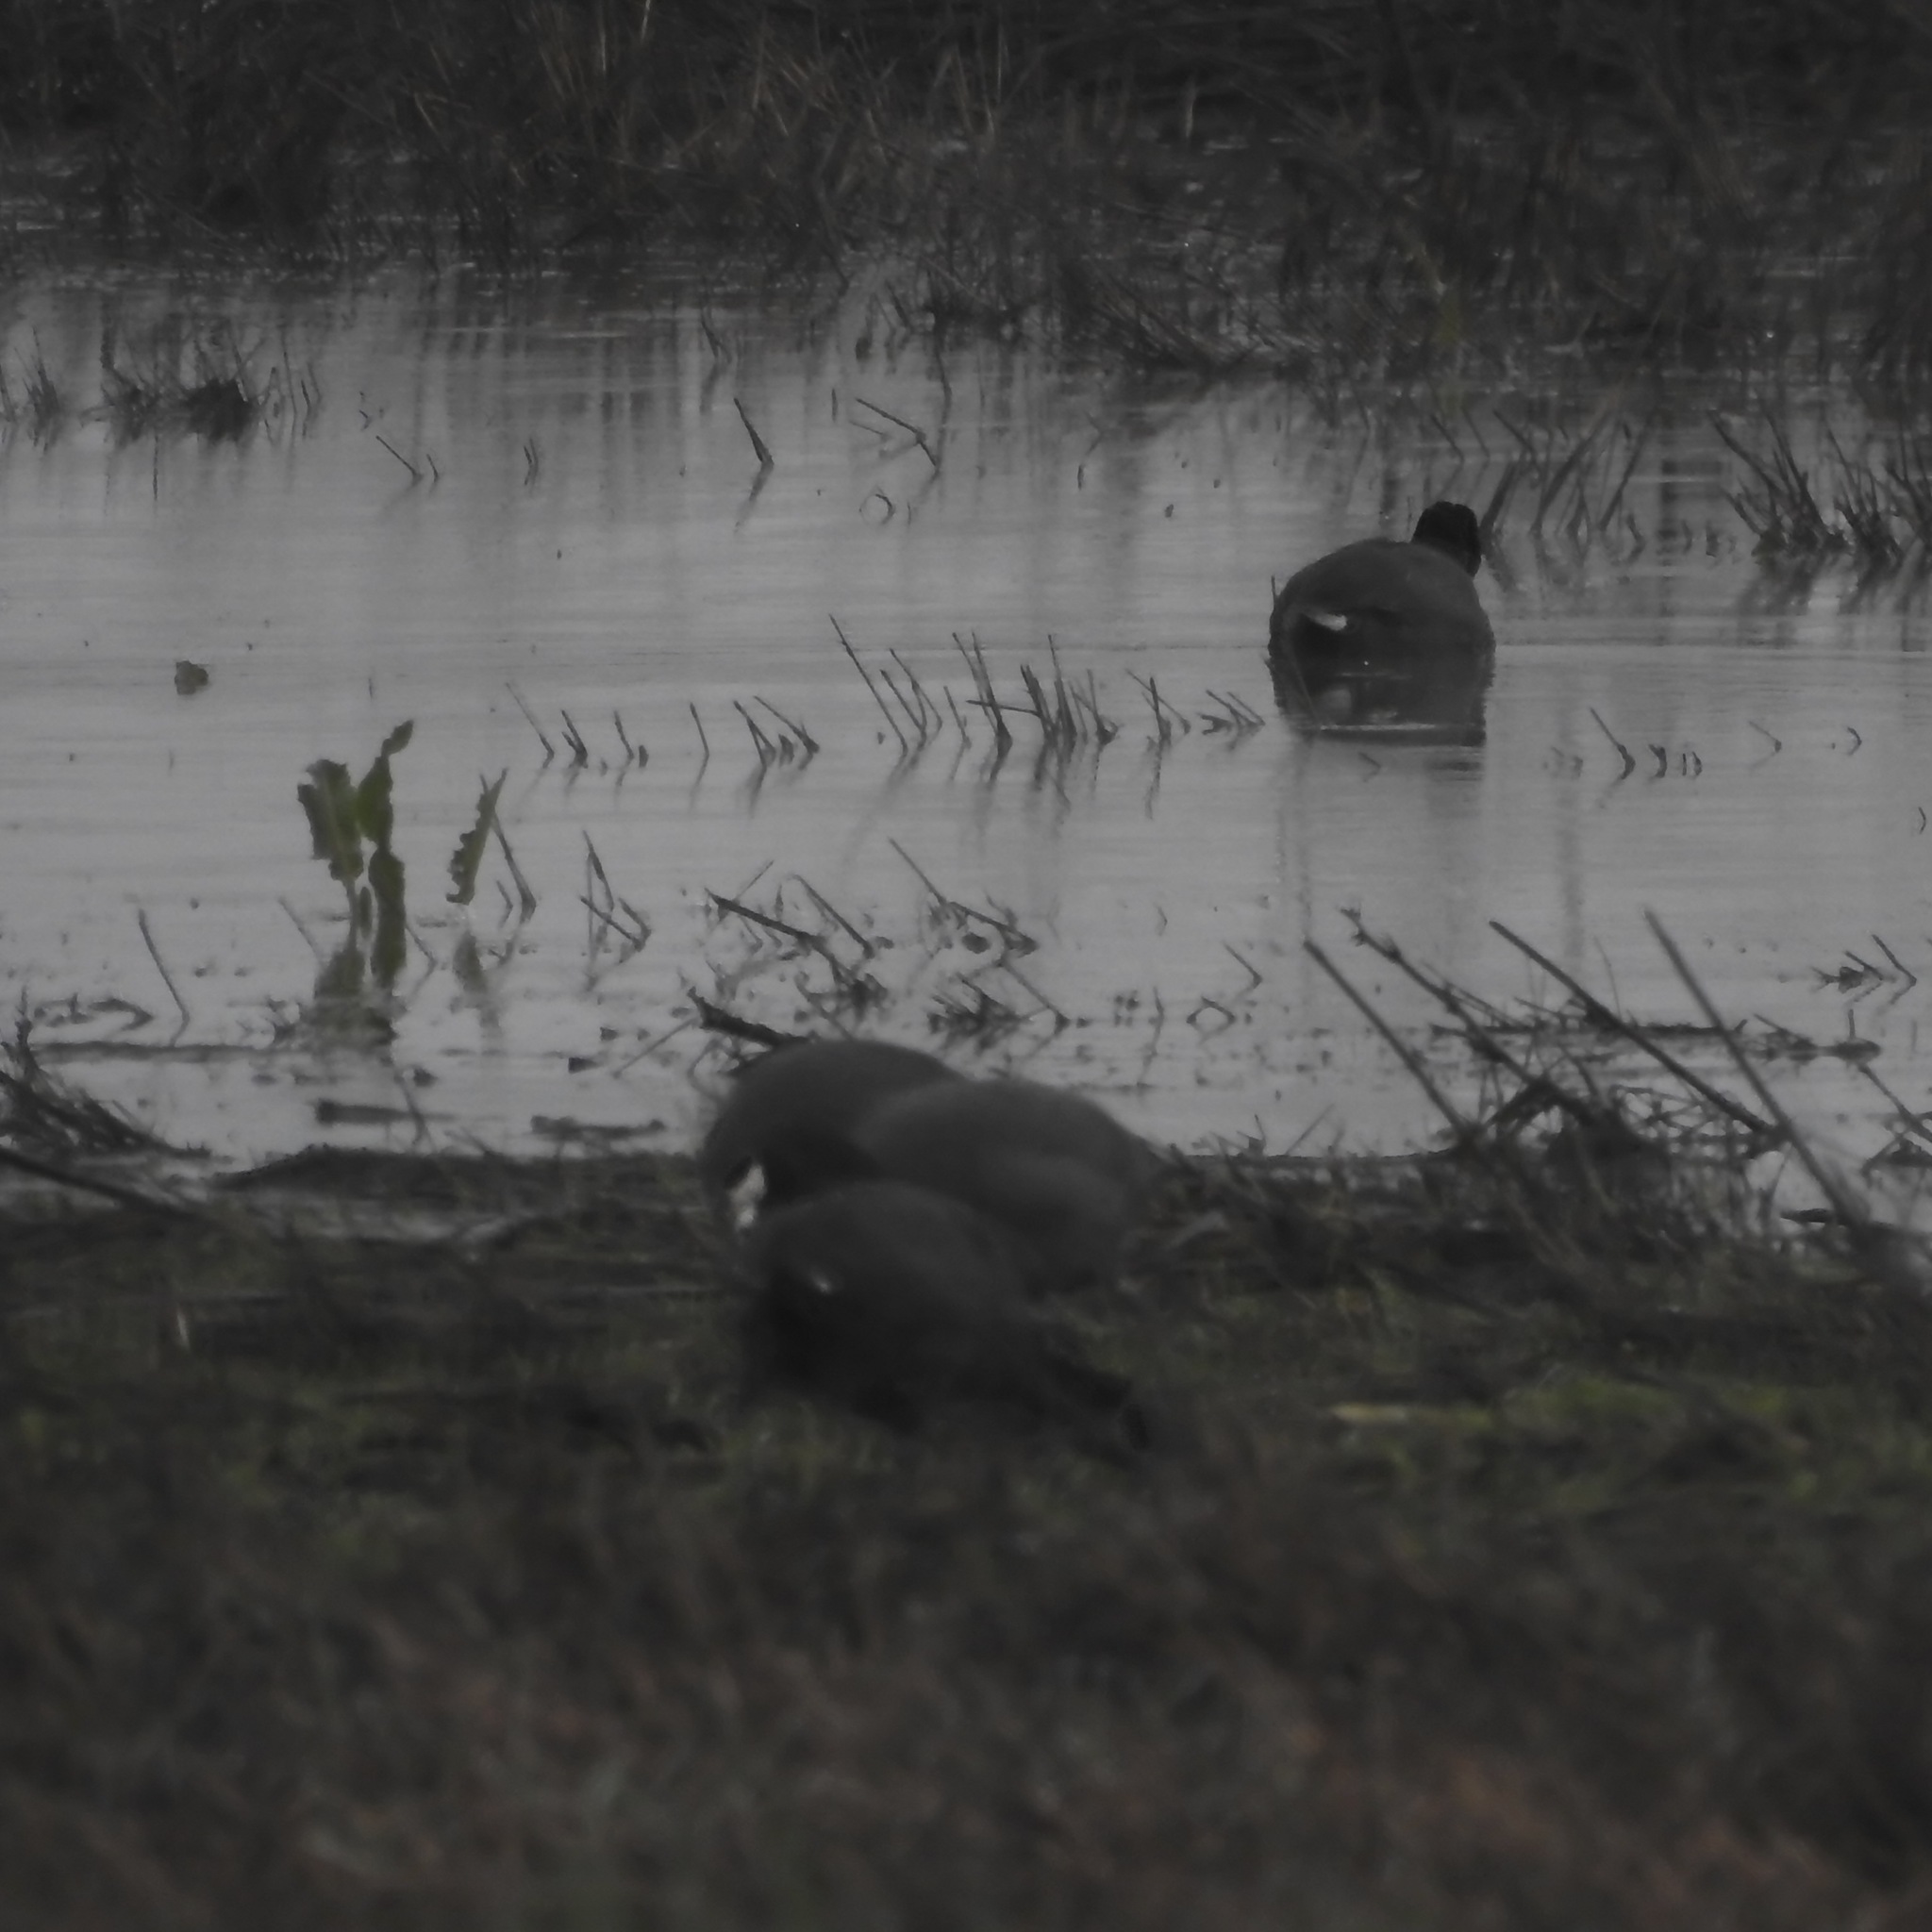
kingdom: Animalia
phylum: Chordata
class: Aves
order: Gruiformes
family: Rallidae
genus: Fulica
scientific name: Fulica americana
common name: American coot
